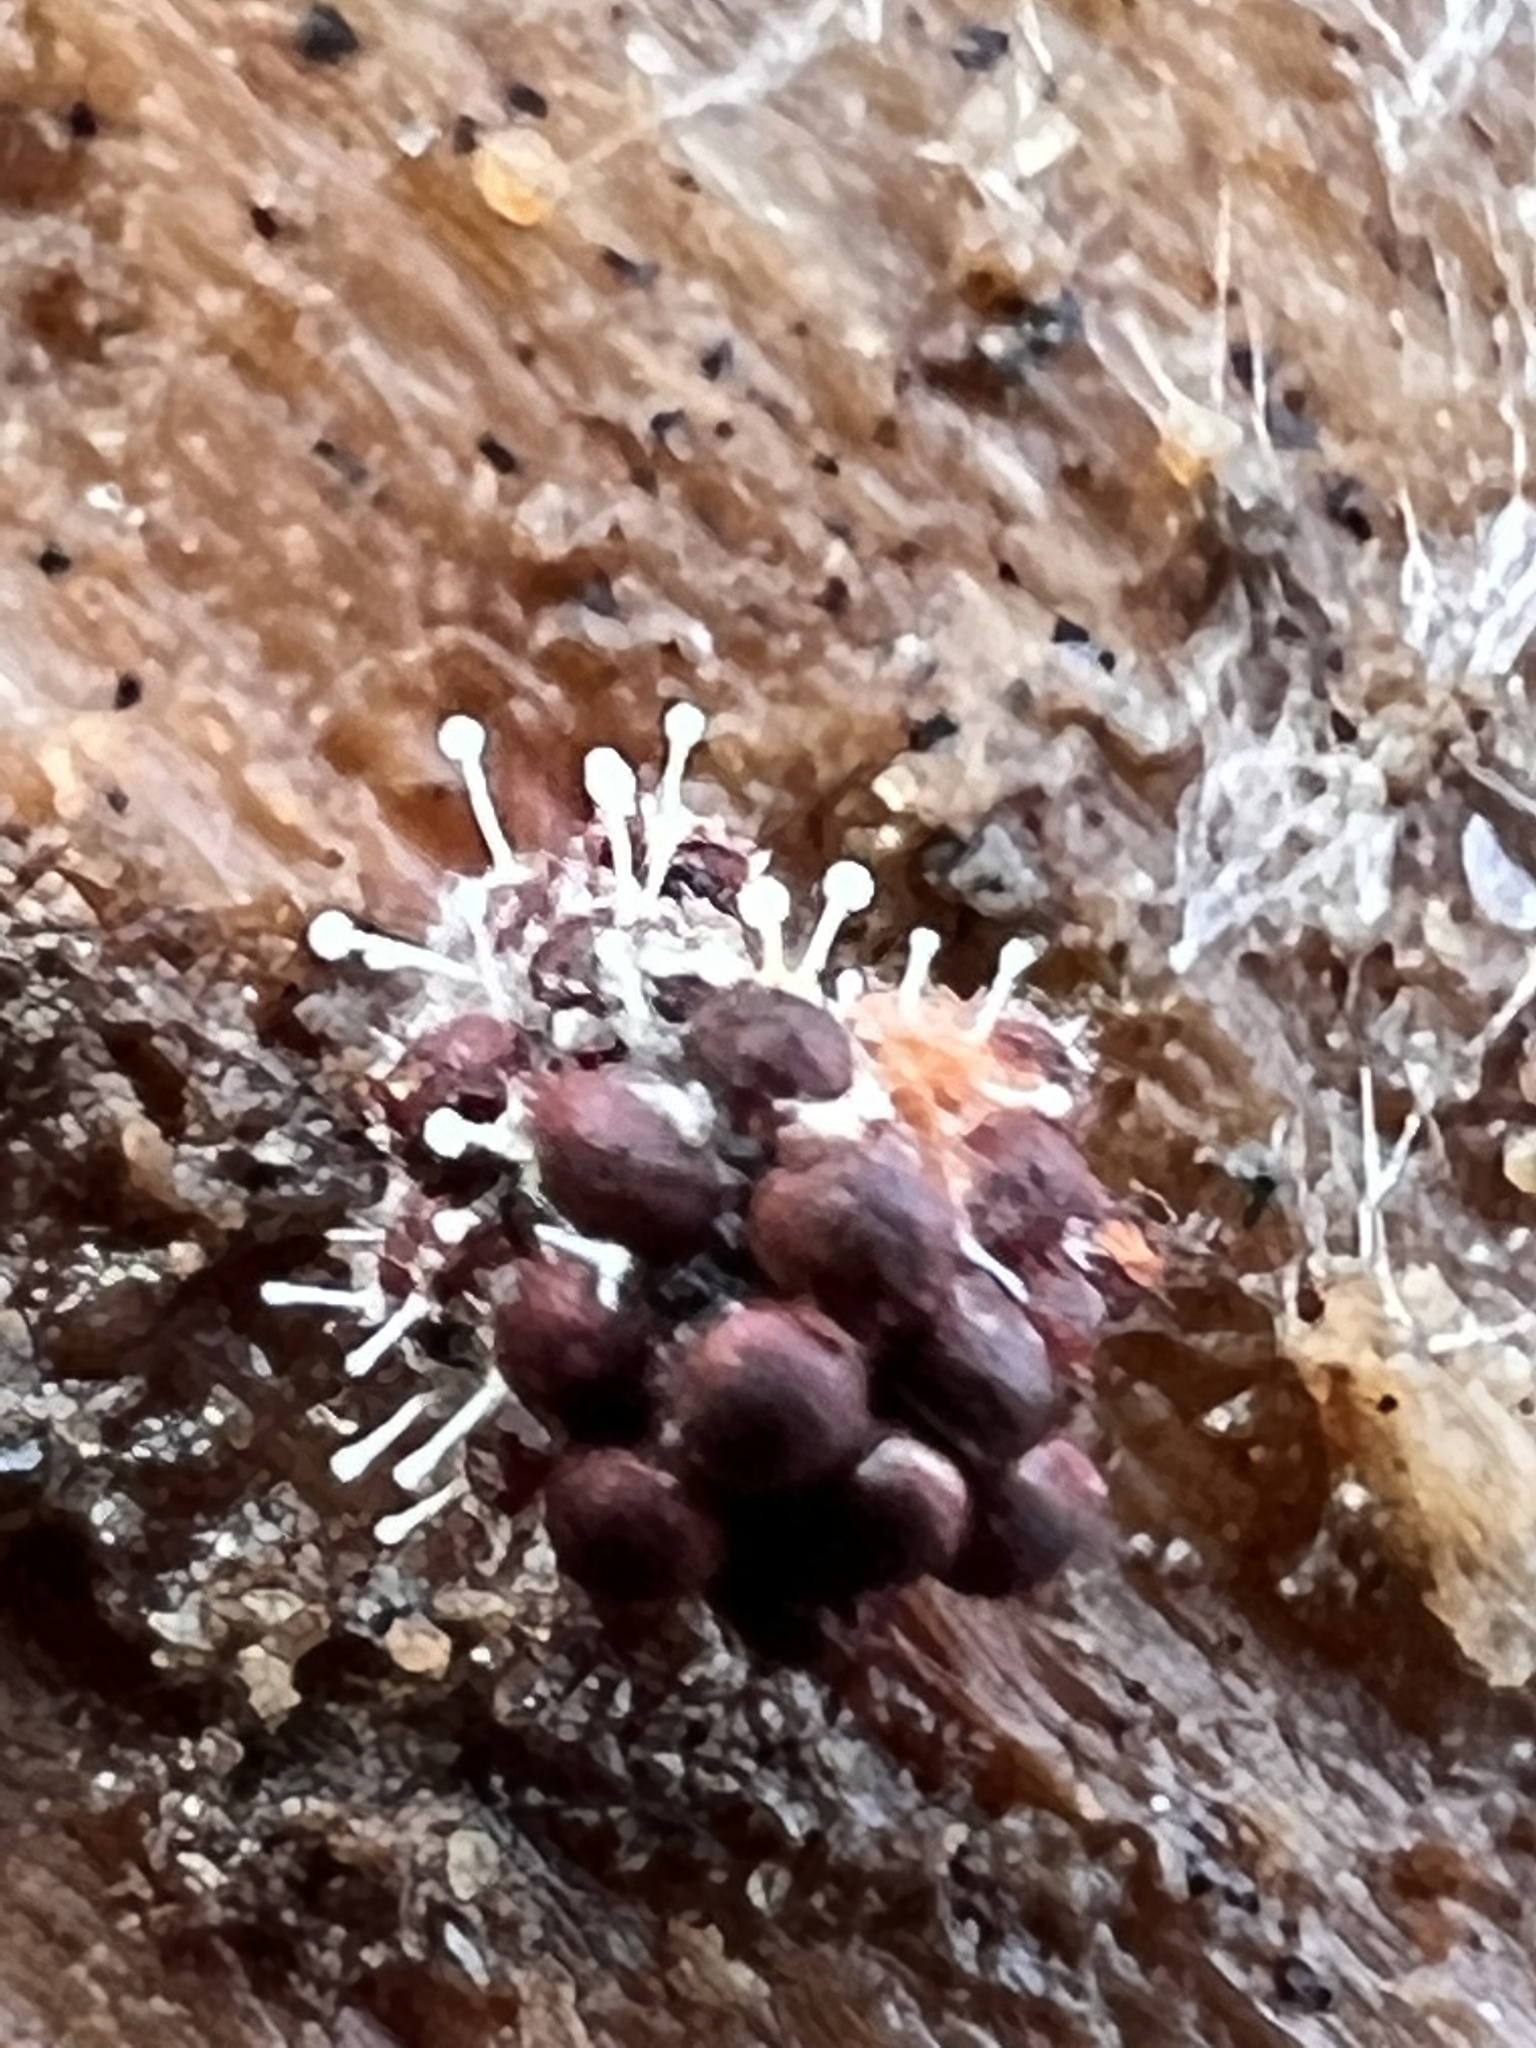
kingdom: Fungi
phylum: Ascomycota
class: Sordariomycetes
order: Hypocreales
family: Ophiocordycipitaceae
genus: Polycephalomyces
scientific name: Polycephalomyces tomentosus
